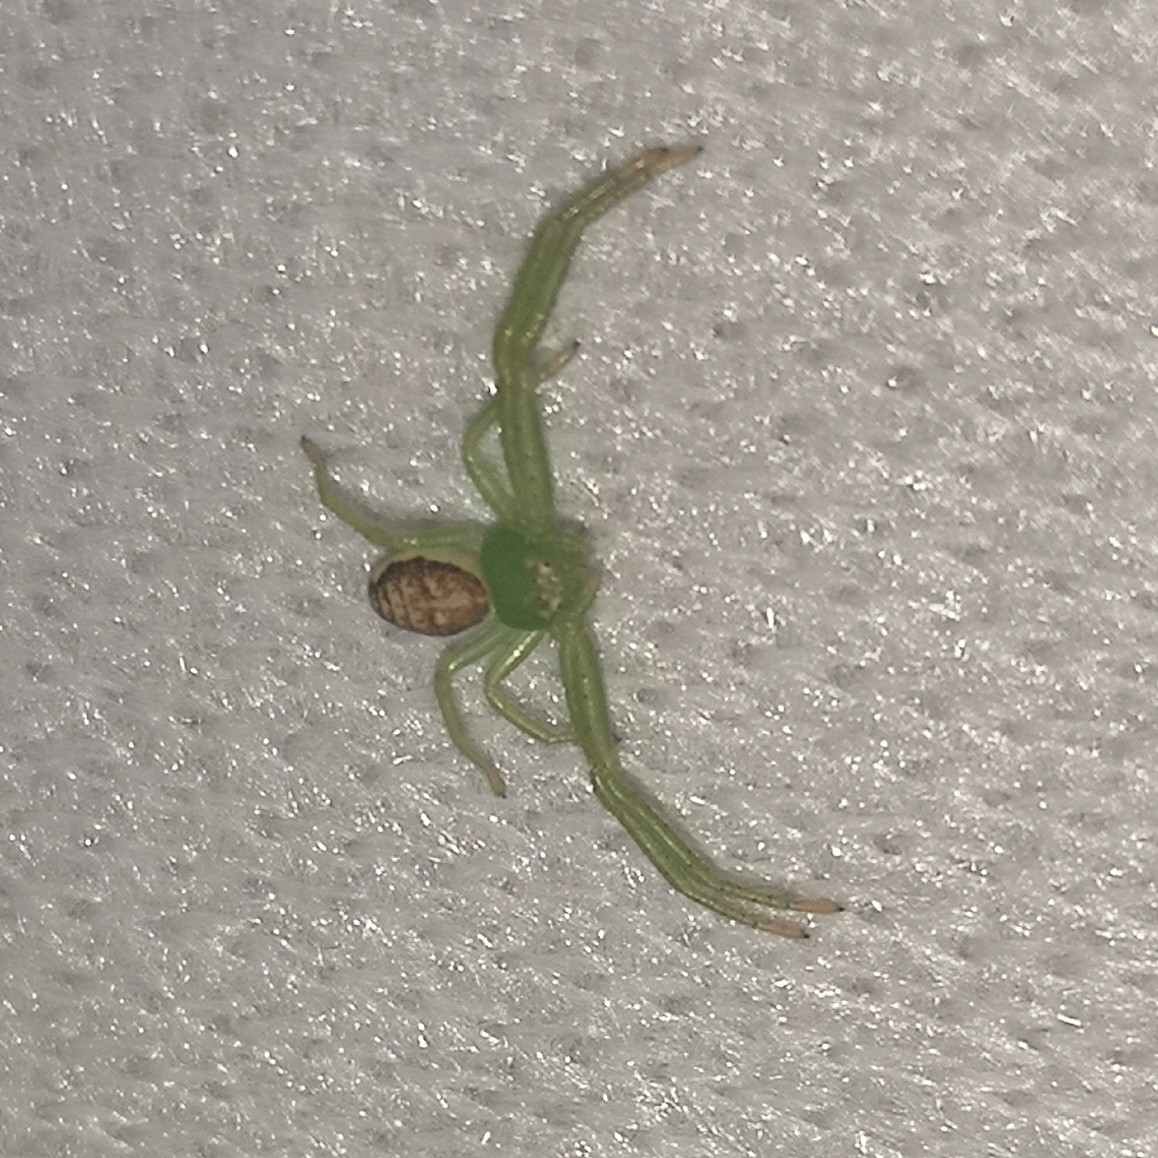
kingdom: Animalia
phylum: Arthropoda
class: Arachnida
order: Araneae
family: Thomisidae
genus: Diaea
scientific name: Diaea dorsata
